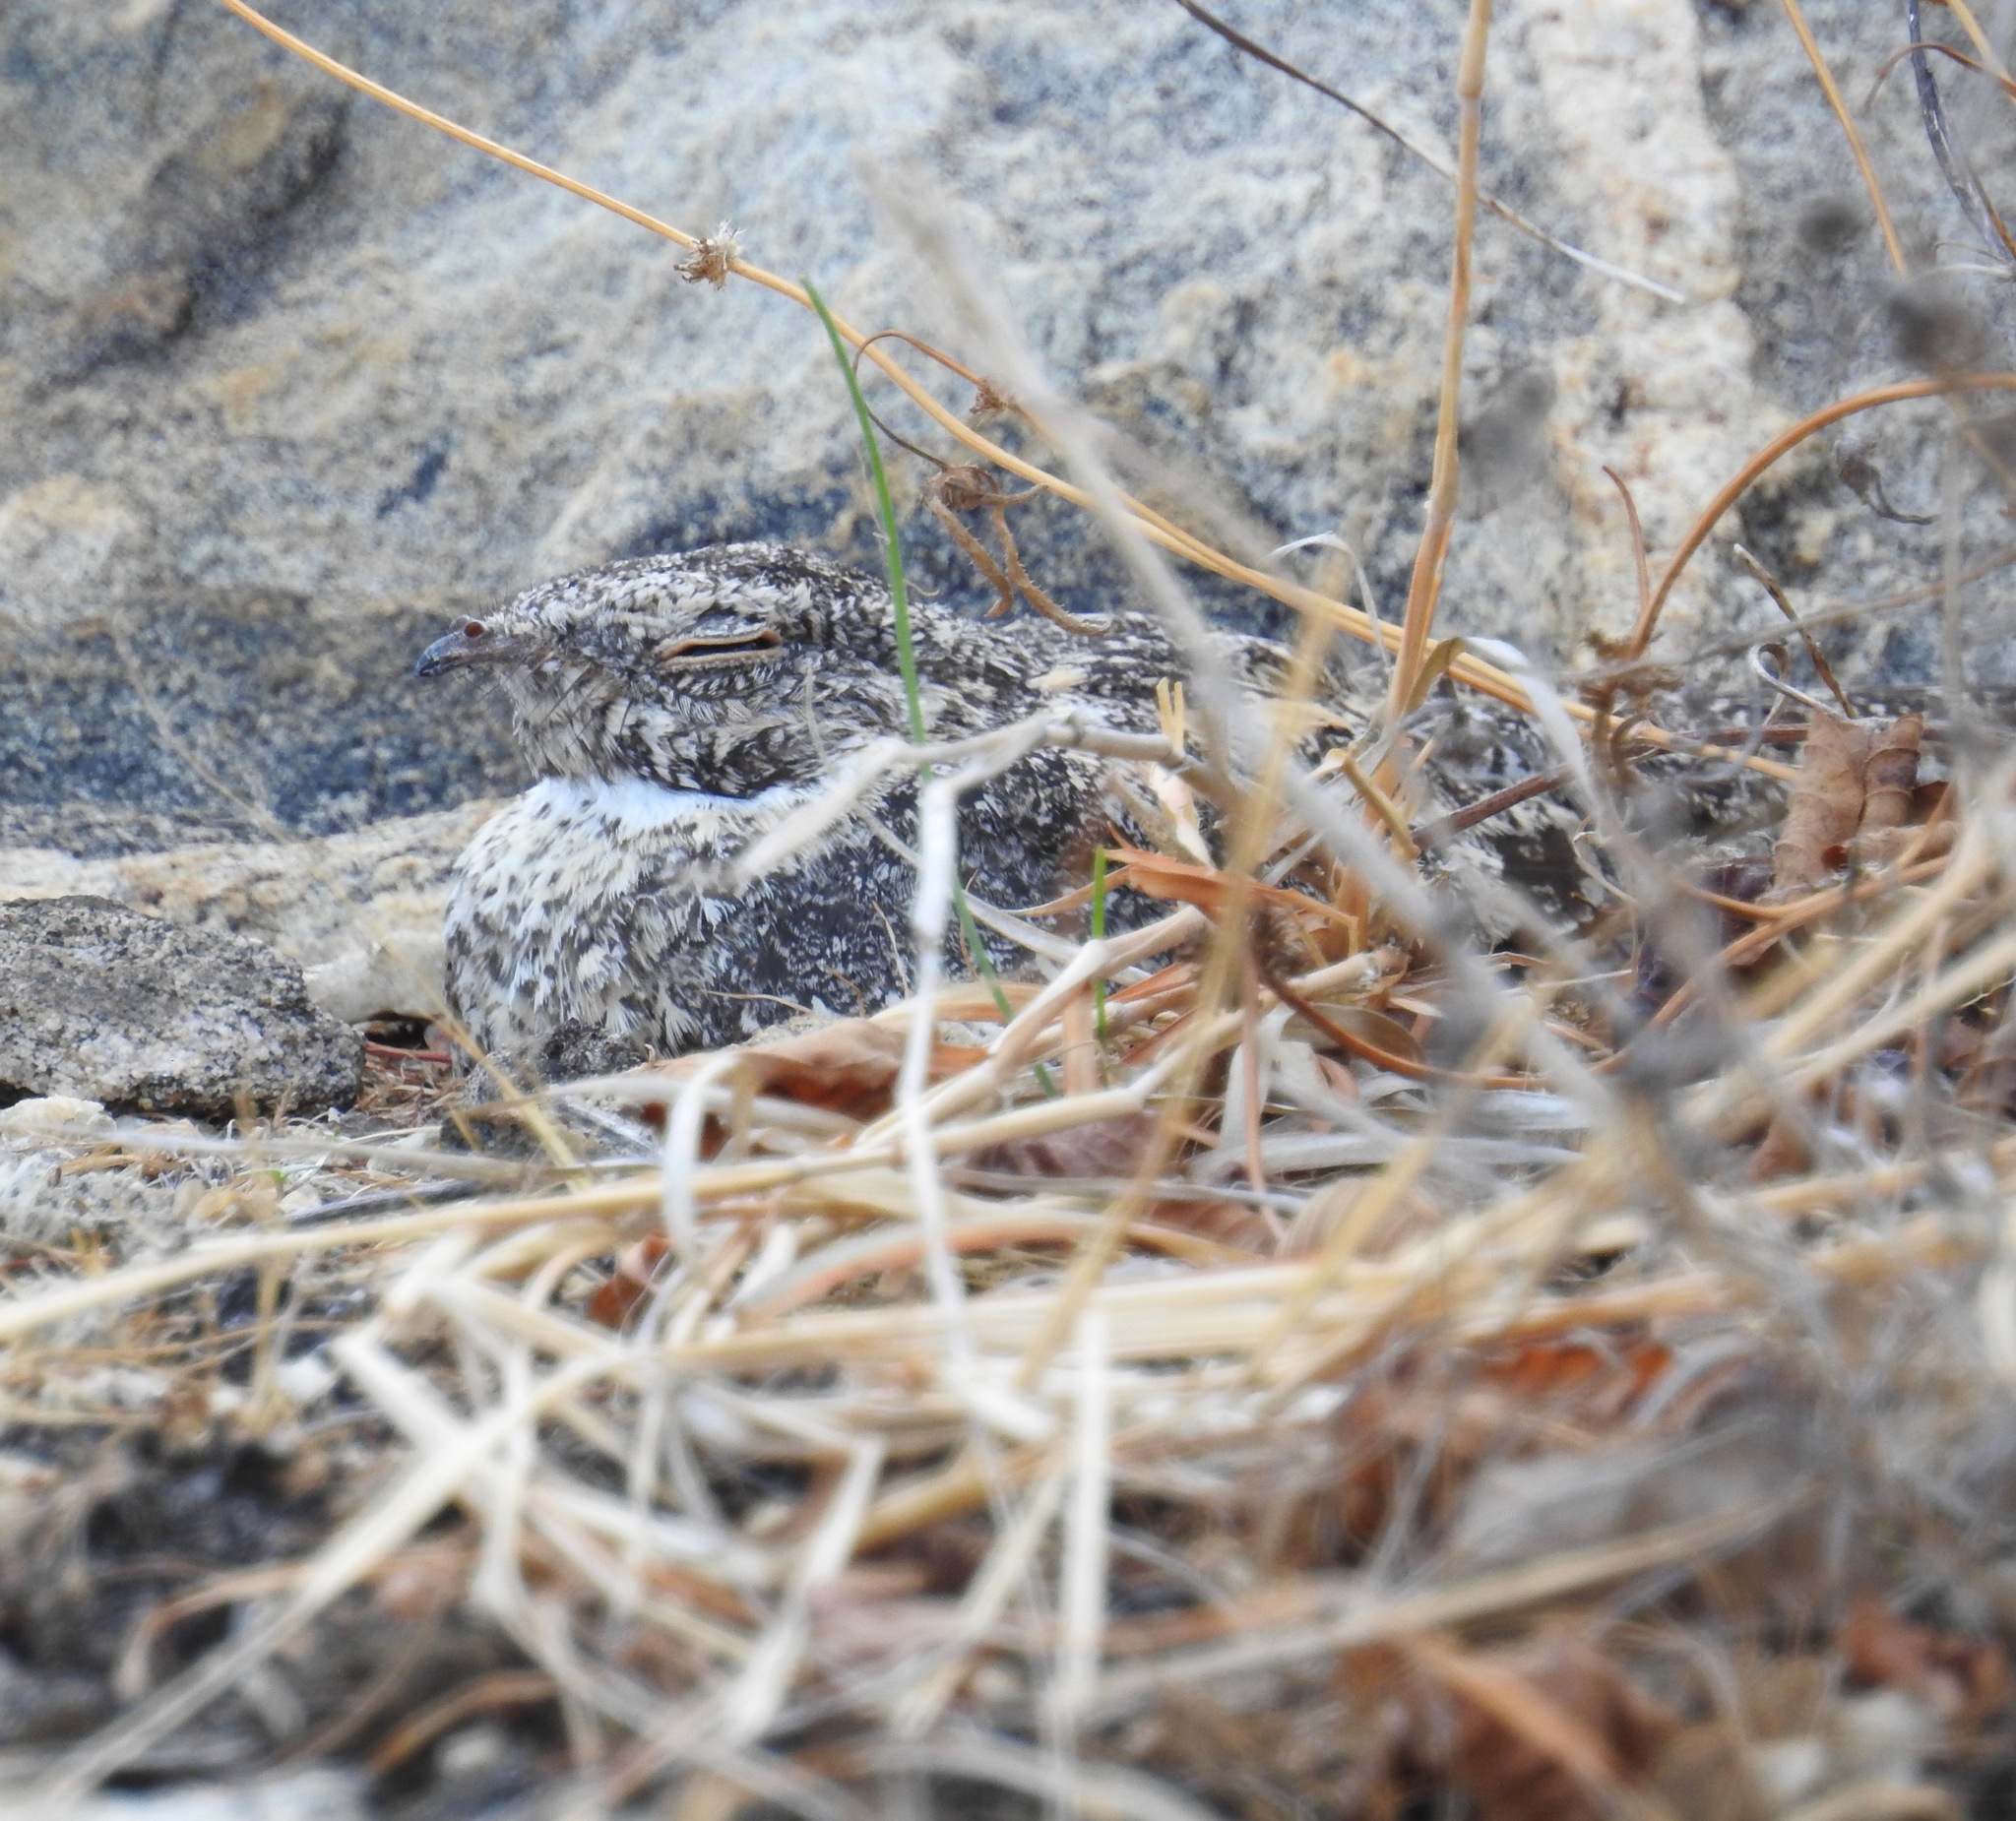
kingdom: Animalia
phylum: Chordata
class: Aves
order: Caprimulgiformes
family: Caprimulgidae
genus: Nyctipolus
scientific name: Nyctipolus hirundinaceus
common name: Pygmy nightjar
